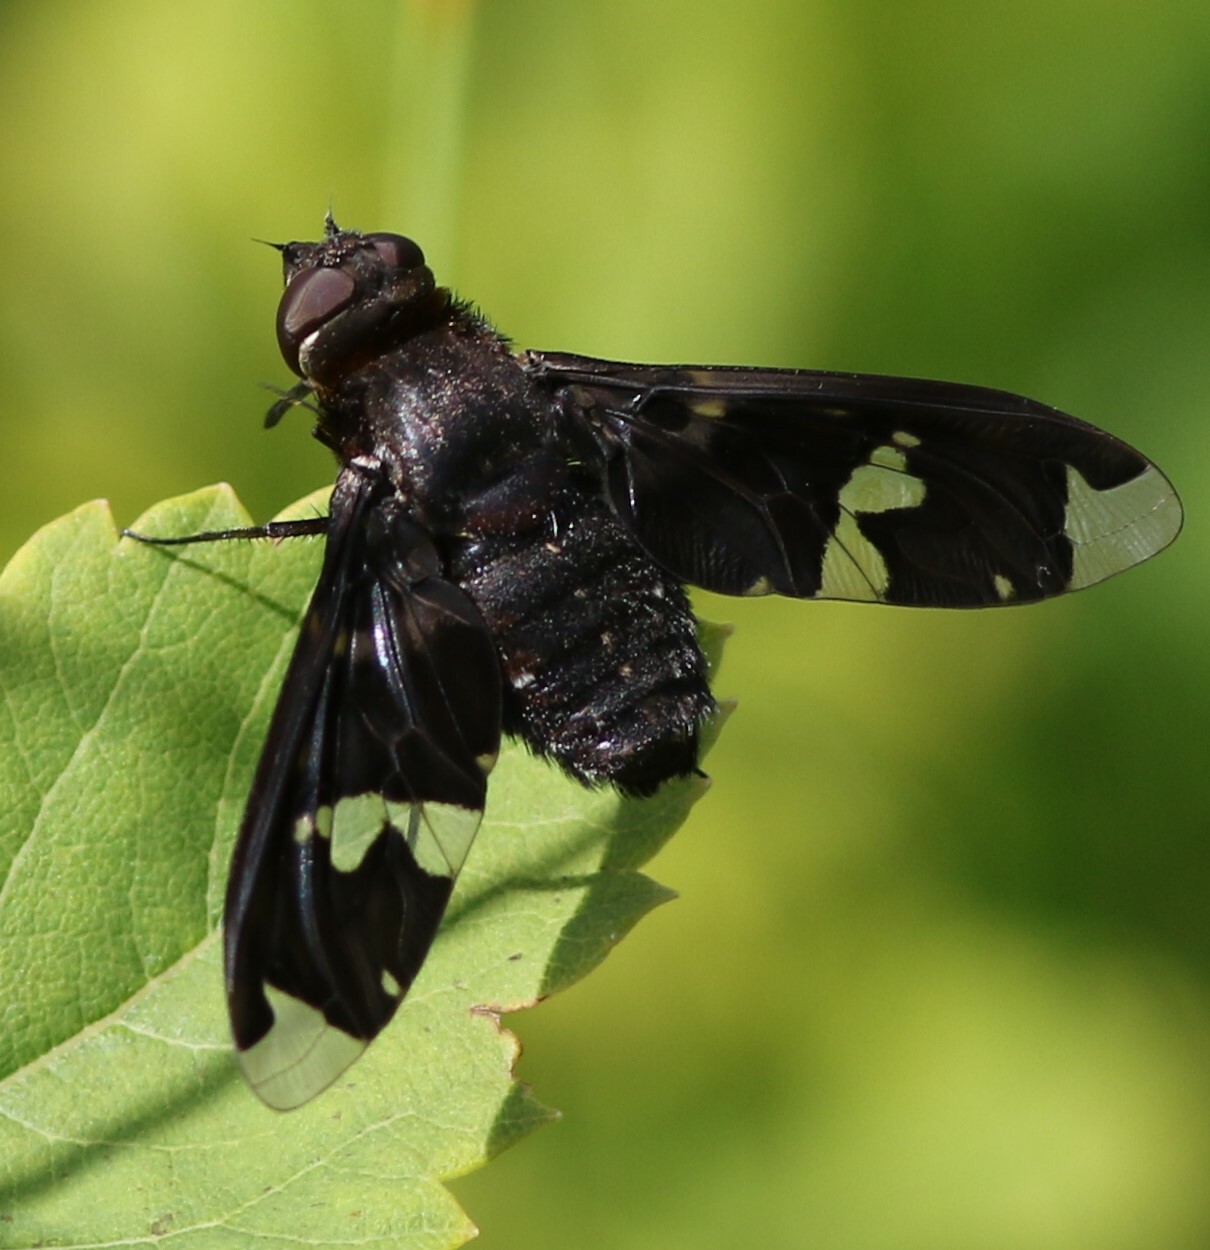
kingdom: Animalia
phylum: Arthropoda
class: Insecta
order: Diptera
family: Bombyliidae
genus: Exoprosopa
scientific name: Exoprosopa decora
